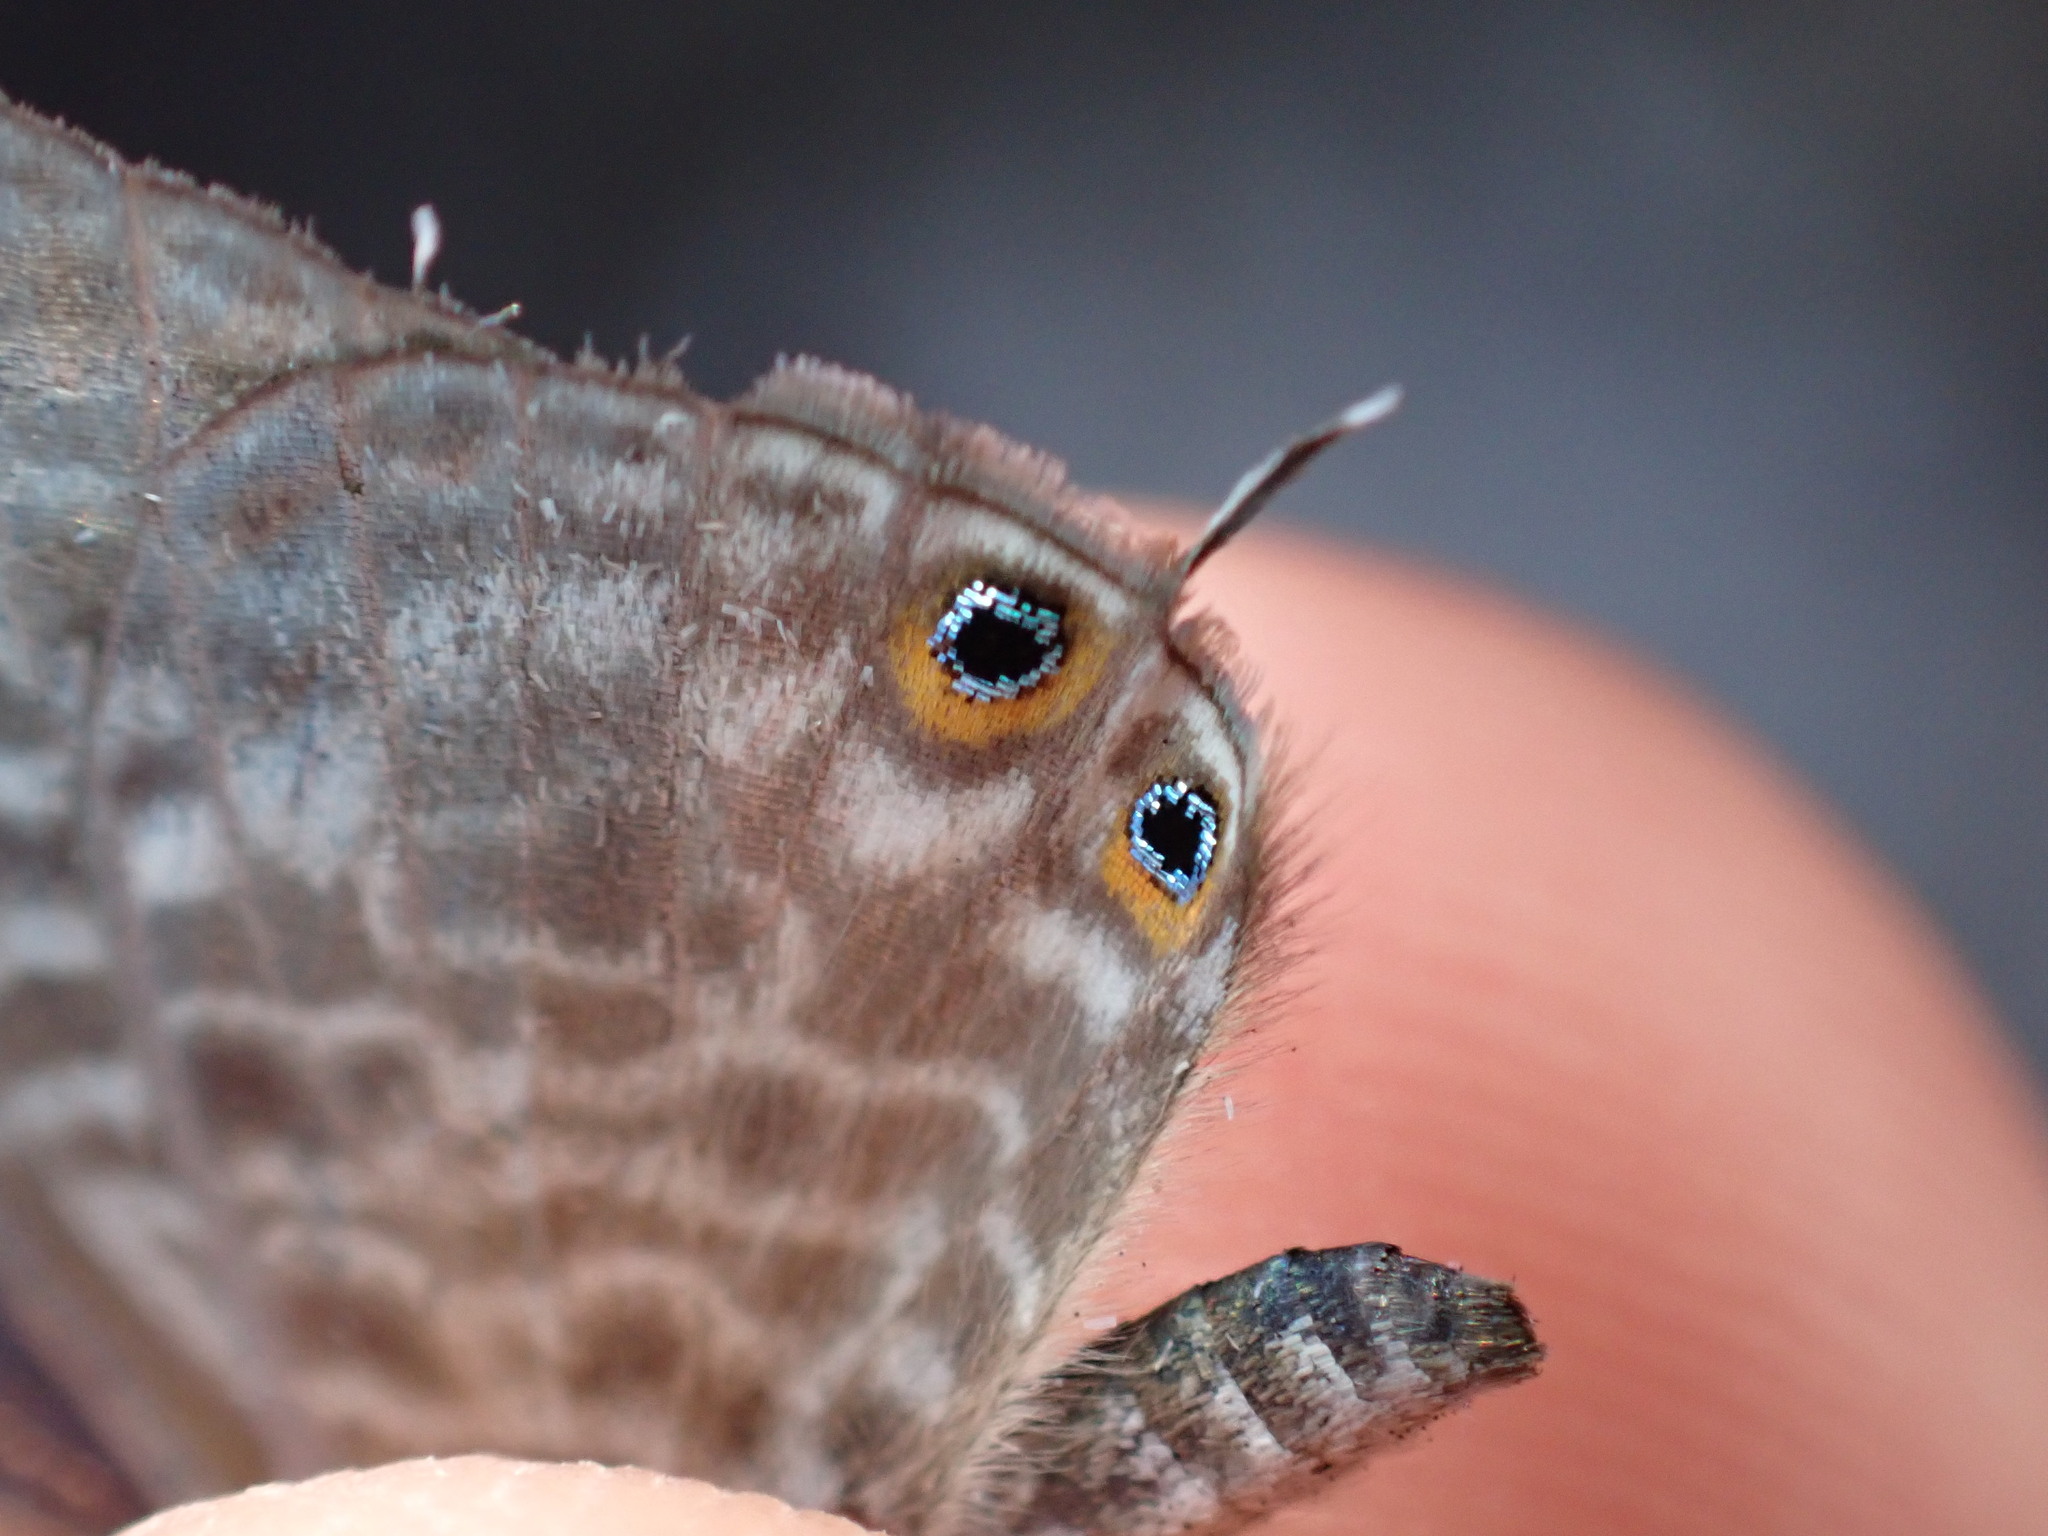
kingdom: Animalia
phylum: Arthropoda
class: Insecta
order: Lepidoptera
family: Lycaenidae
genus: Leptotes
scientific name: Leptotes pirithous
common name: Lang's short-tailed blue
